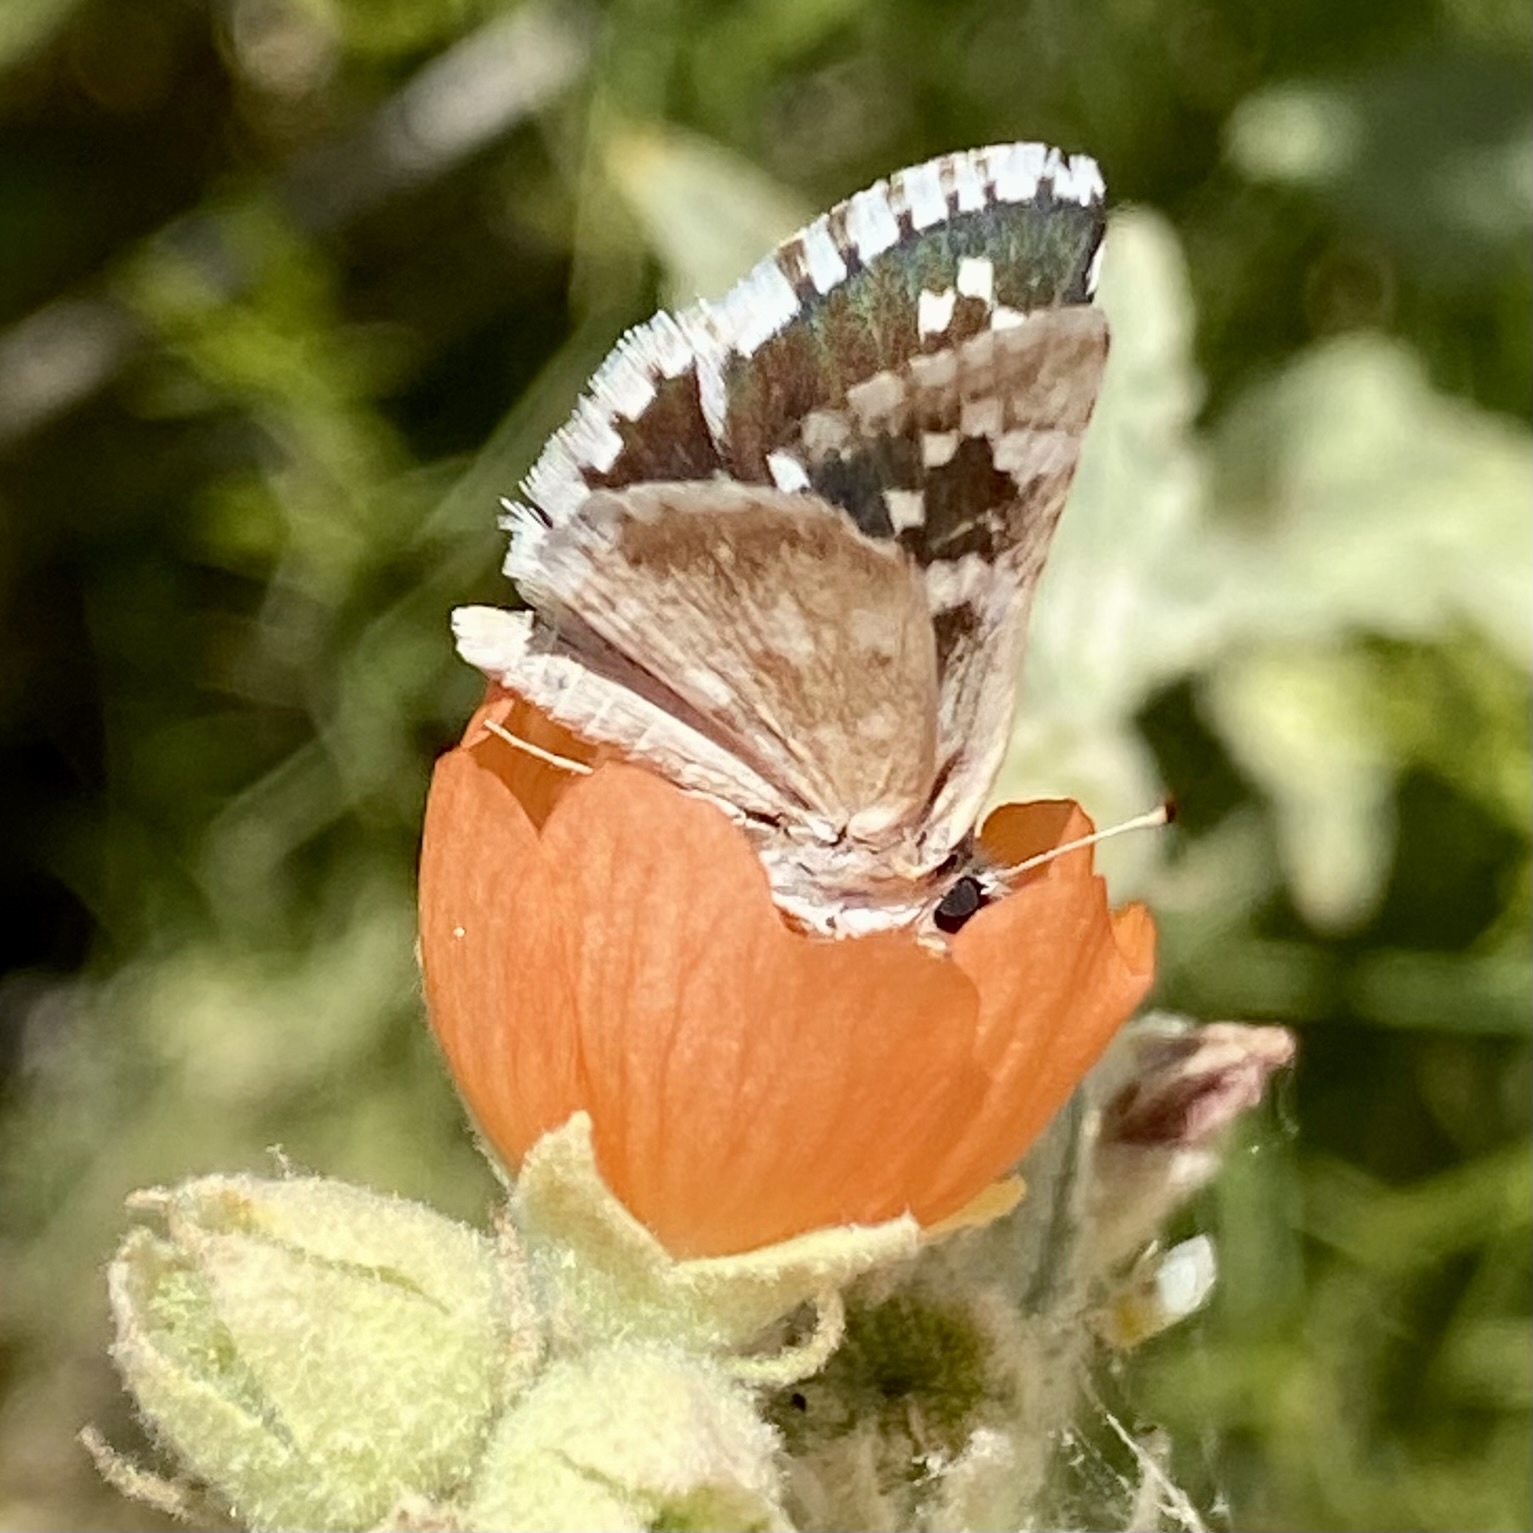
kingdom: Animalia
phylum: Arthropoda
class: Insecta
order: Lepidoptera
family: Hesperiidae
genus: Pyrgus
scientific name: Pyrgus scriptura
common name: Small checkered-skipper
